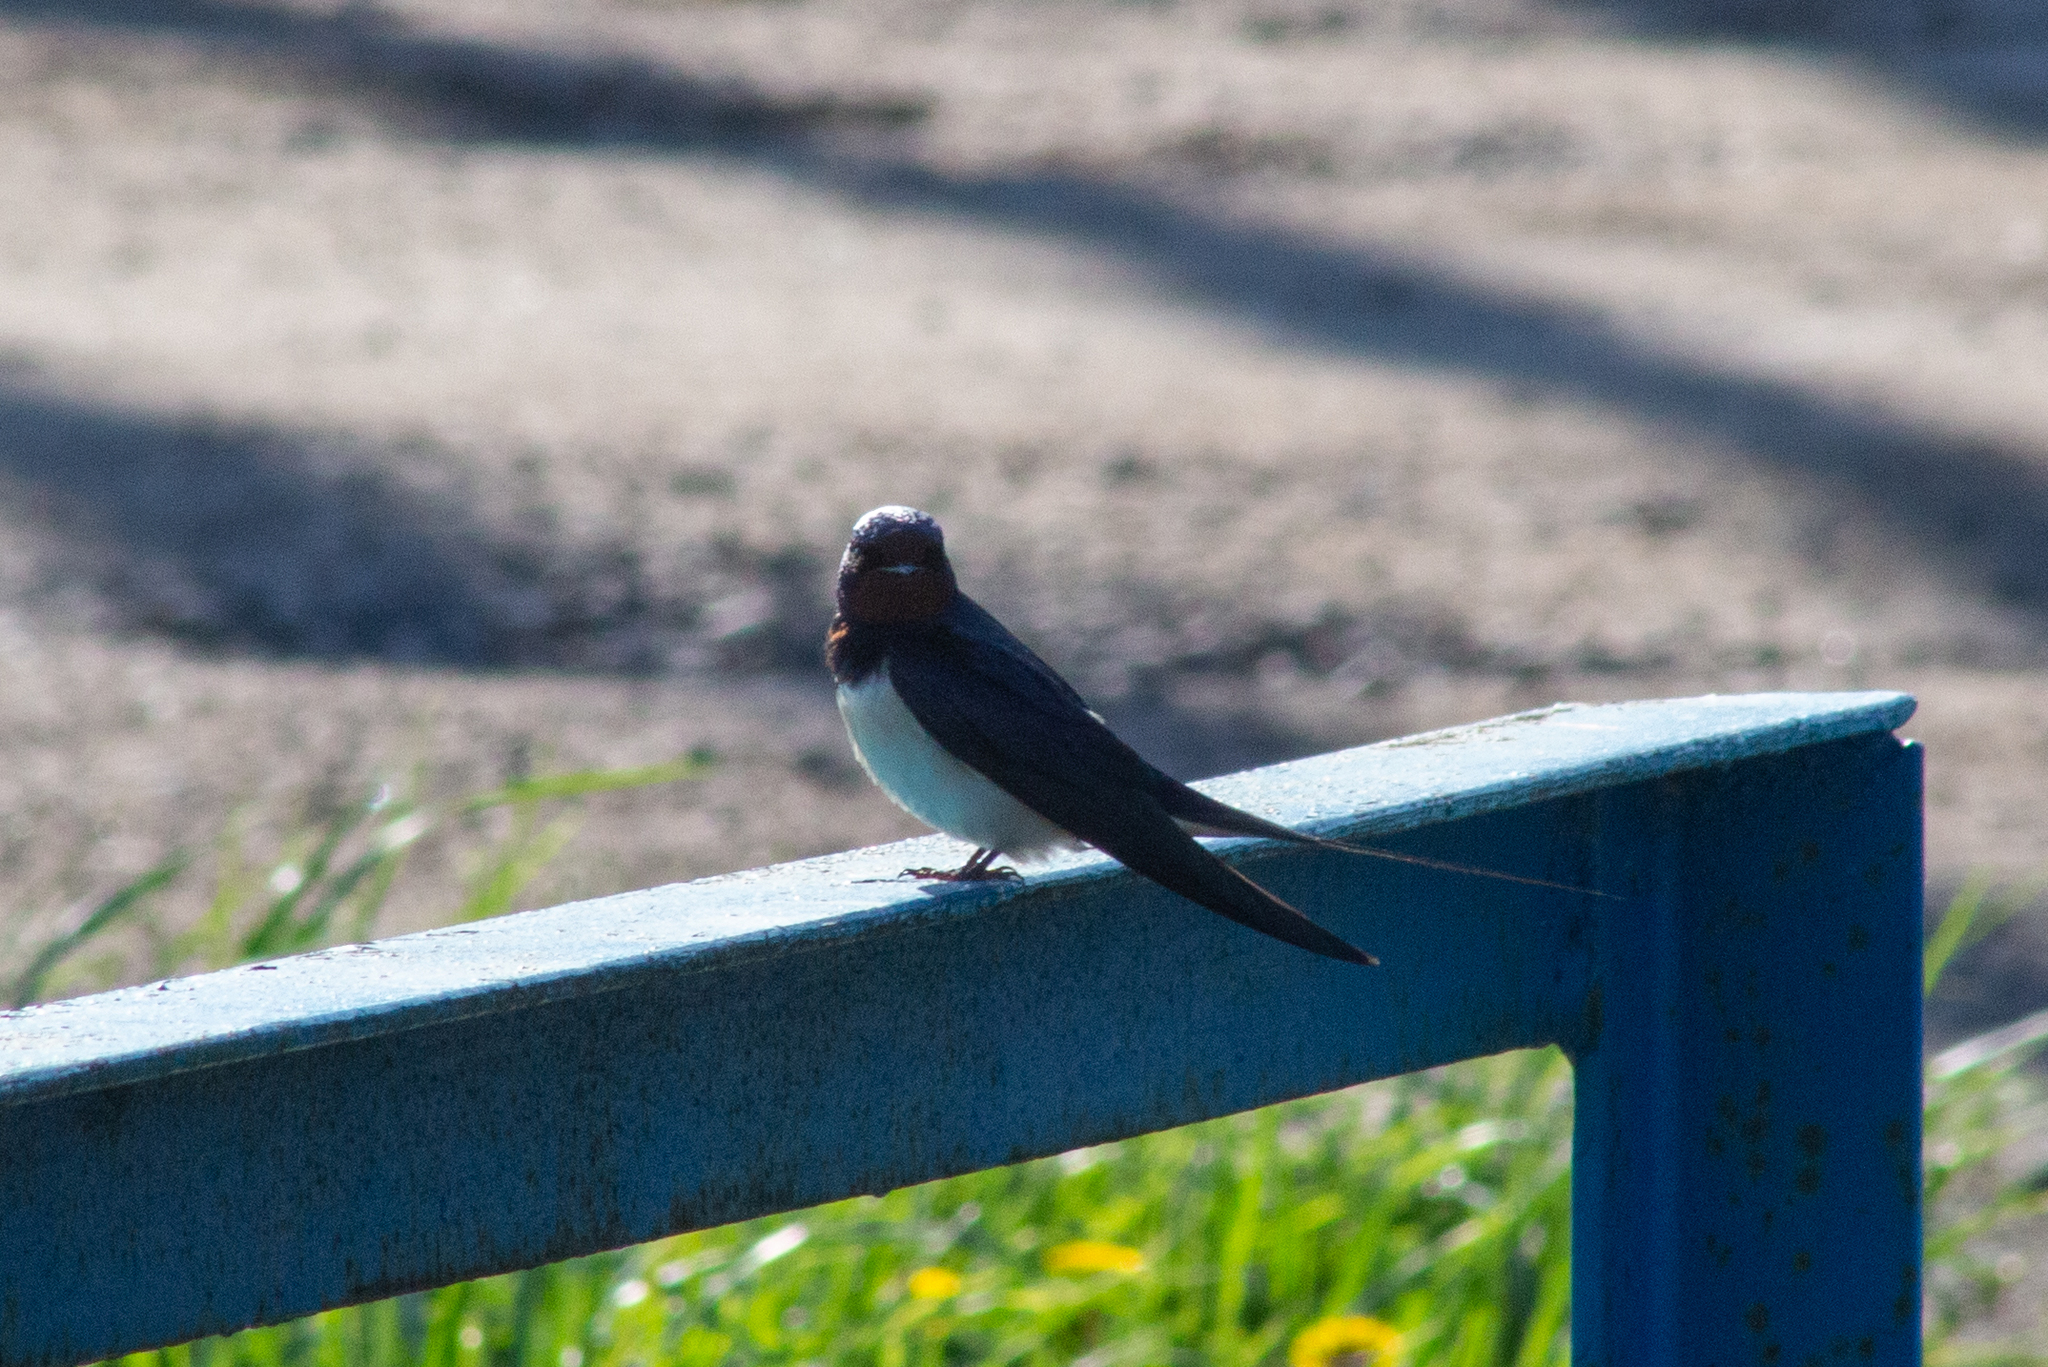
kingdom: Animalia
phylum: Chordata
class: Aves
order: Passeriformes
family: Hirundinidae
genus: Hirundo
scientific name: Hirundo rustica
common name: Barn swallow
